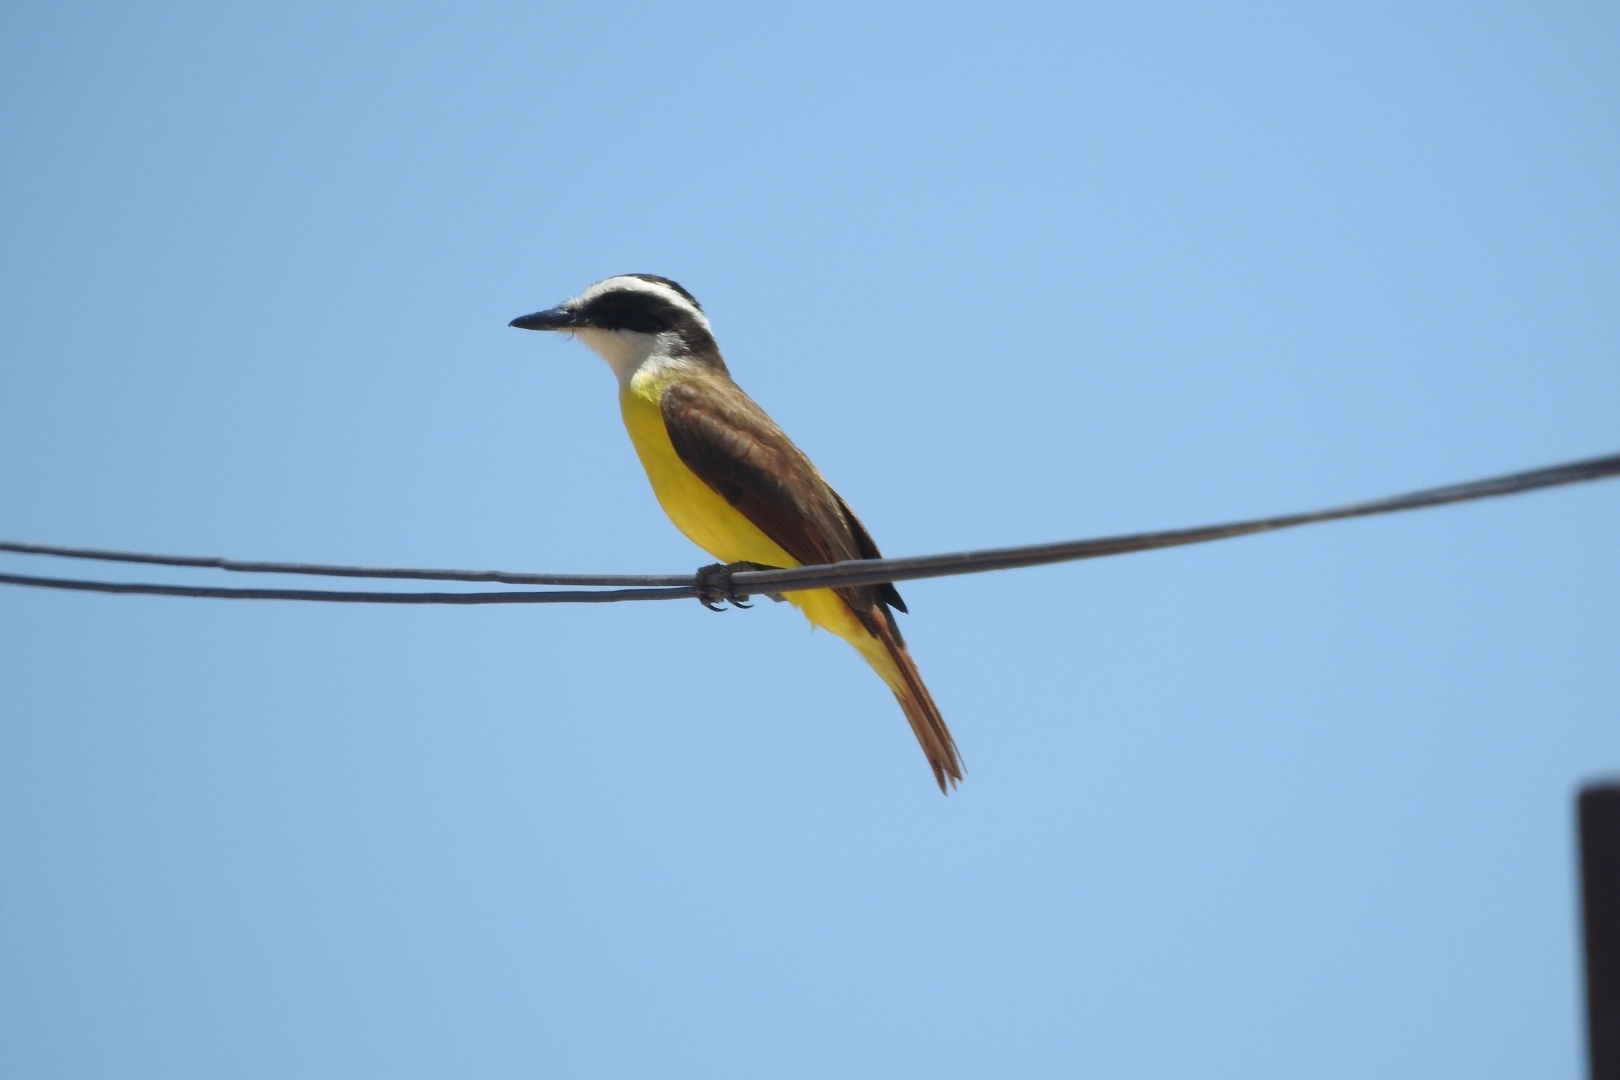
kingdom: Animalia
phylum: Chordata
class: Aves
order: Passeriformes
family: Tyrannidae
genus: Pitangus
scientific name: Pitangus sulphuratus
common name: Great kiskadee
